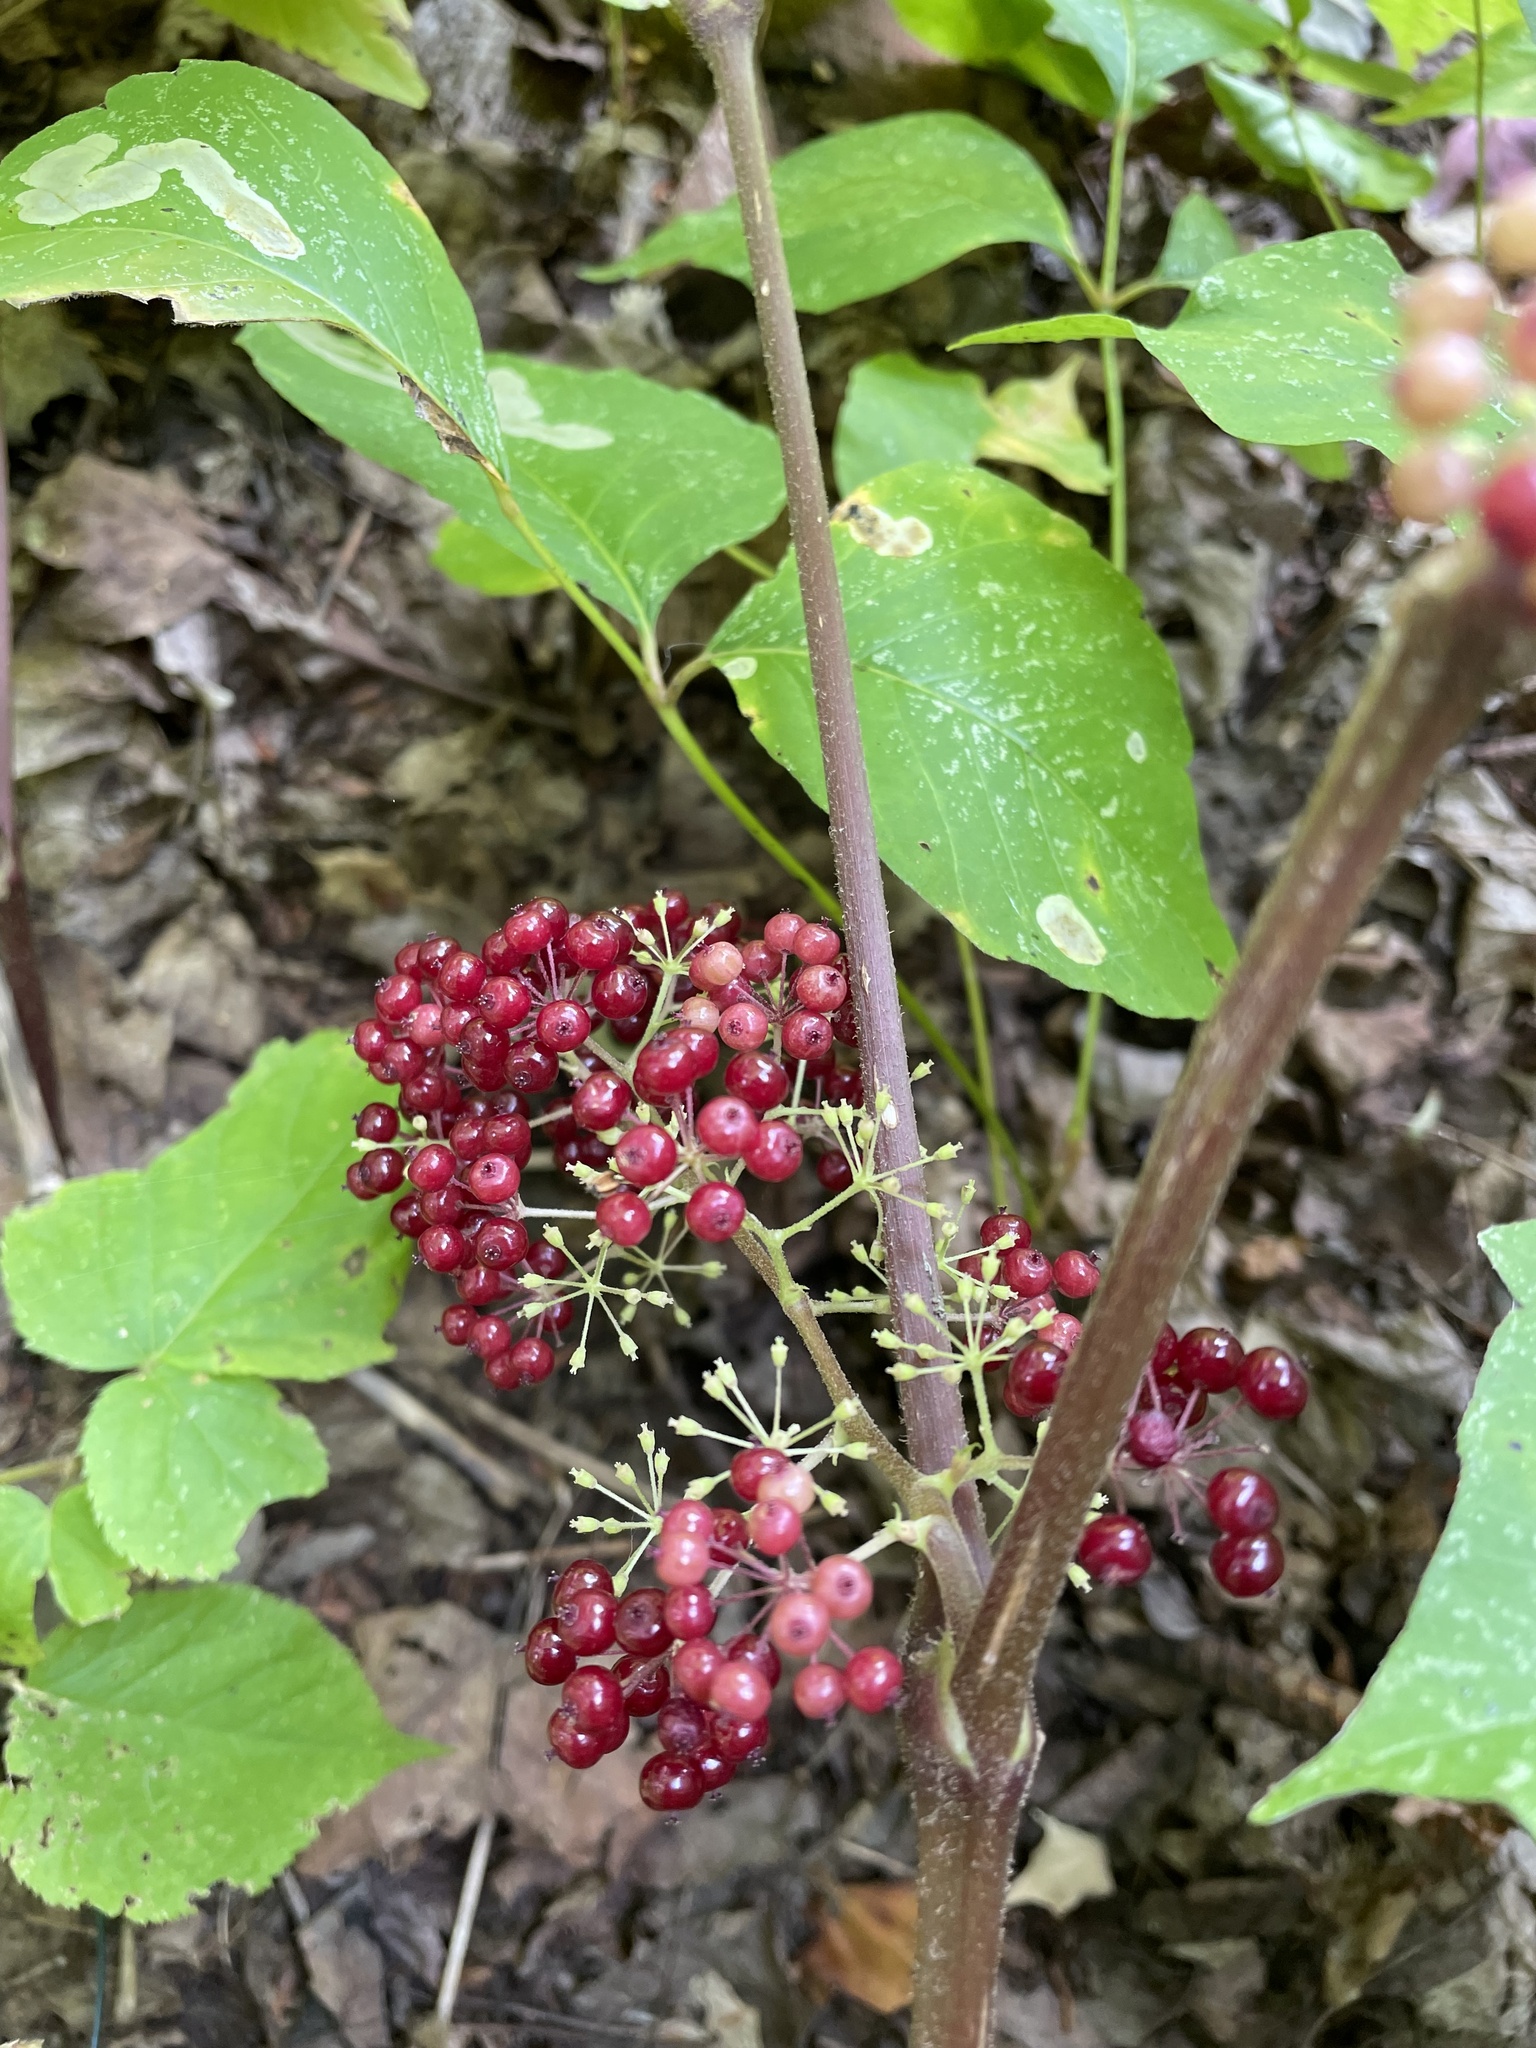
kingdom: Plantae
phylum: Tracheophyta
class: Magnoliopsida
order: Apiales
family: Araliaceae
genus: Aralia
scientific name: Aralia racemosa
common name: American-spikenard
